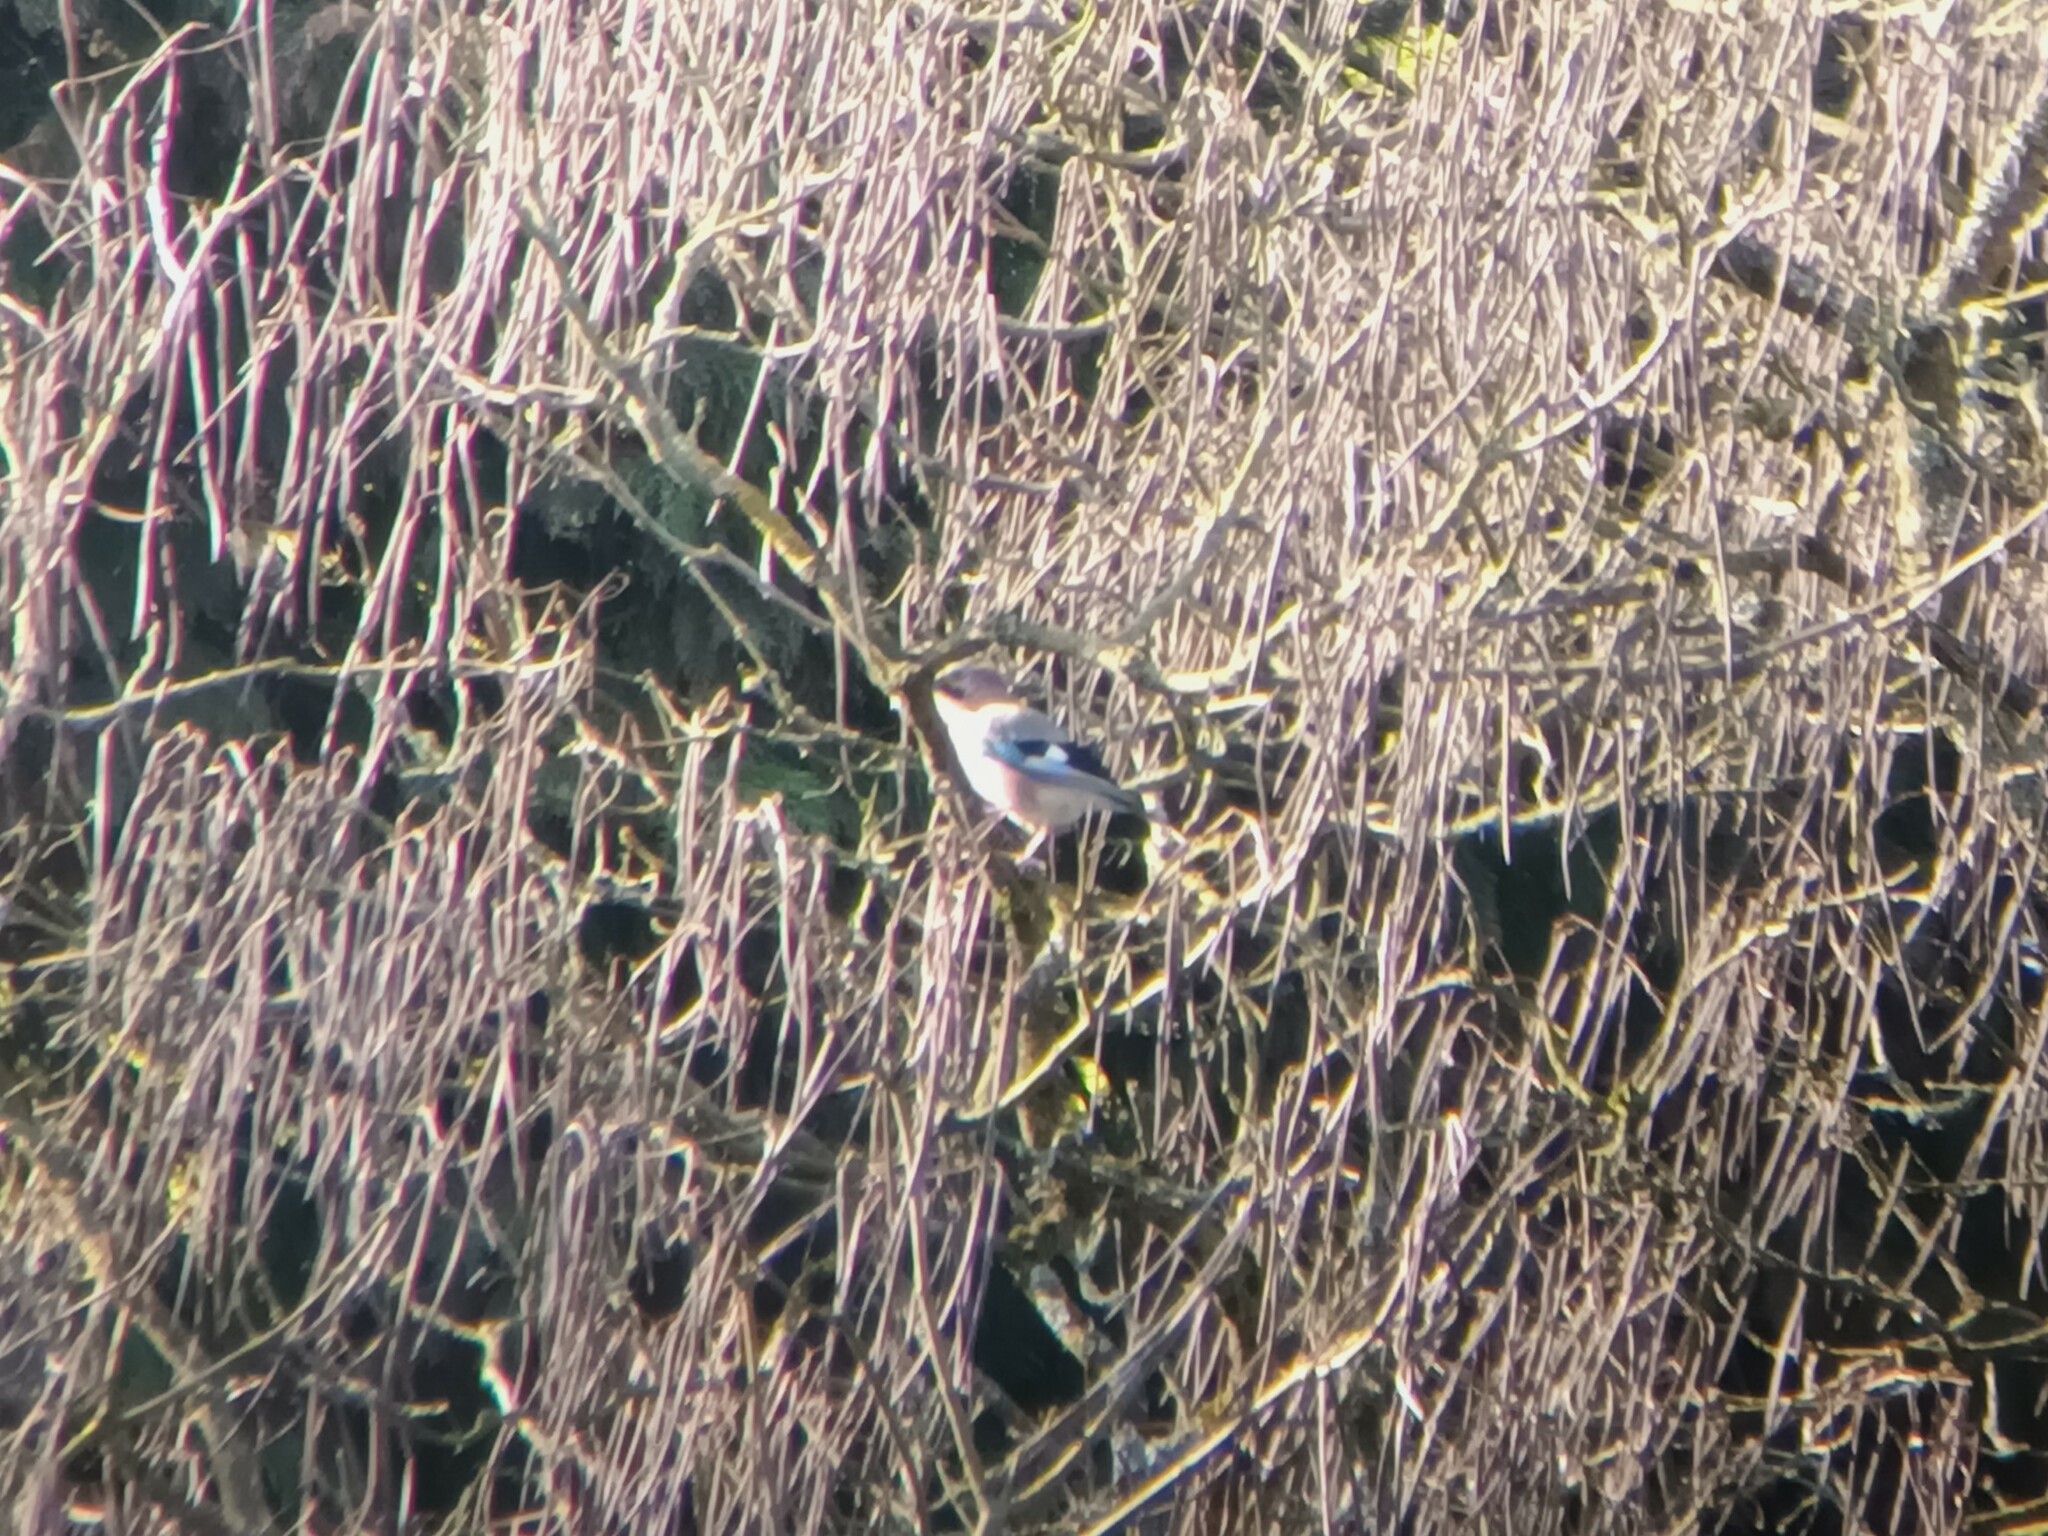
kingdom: Animalia
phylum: Chordata
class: Aves
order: Passeriformes
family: Corvidae
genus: Garrulus
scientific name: Garrulus glandarius
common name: Eurasian jay
